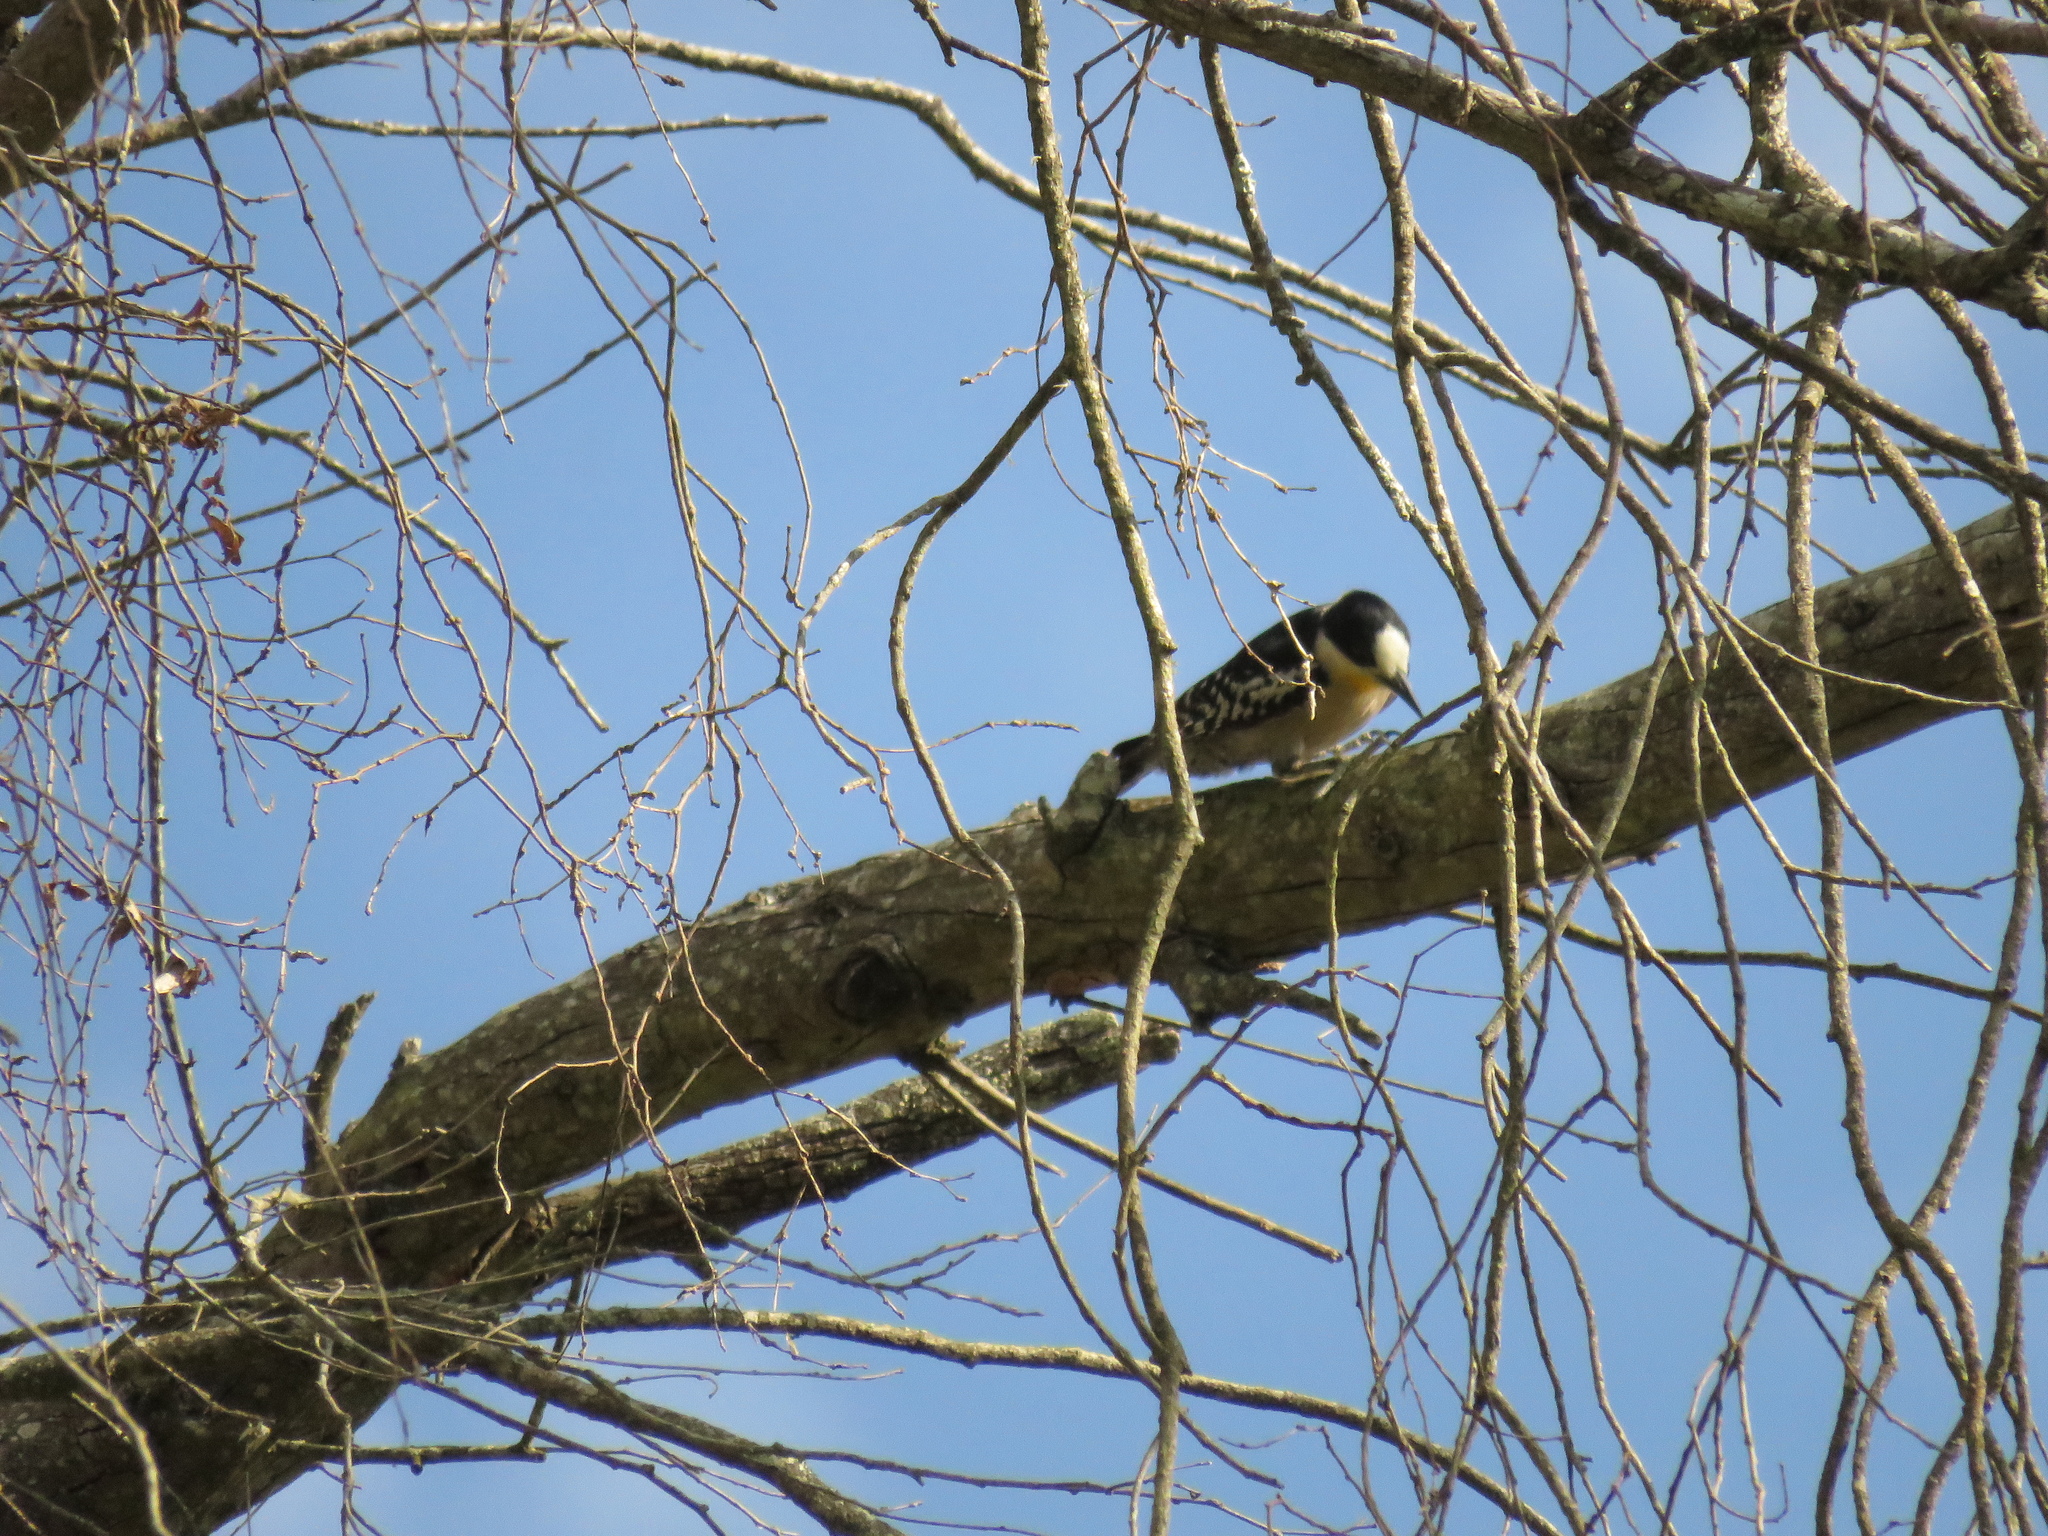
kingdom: Animalia
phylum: Chordata
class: Aves
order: Piciformes
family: Picidae
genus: Melanerpes
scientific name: Melanerpes cactorum
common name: White-fronted woodpecker
